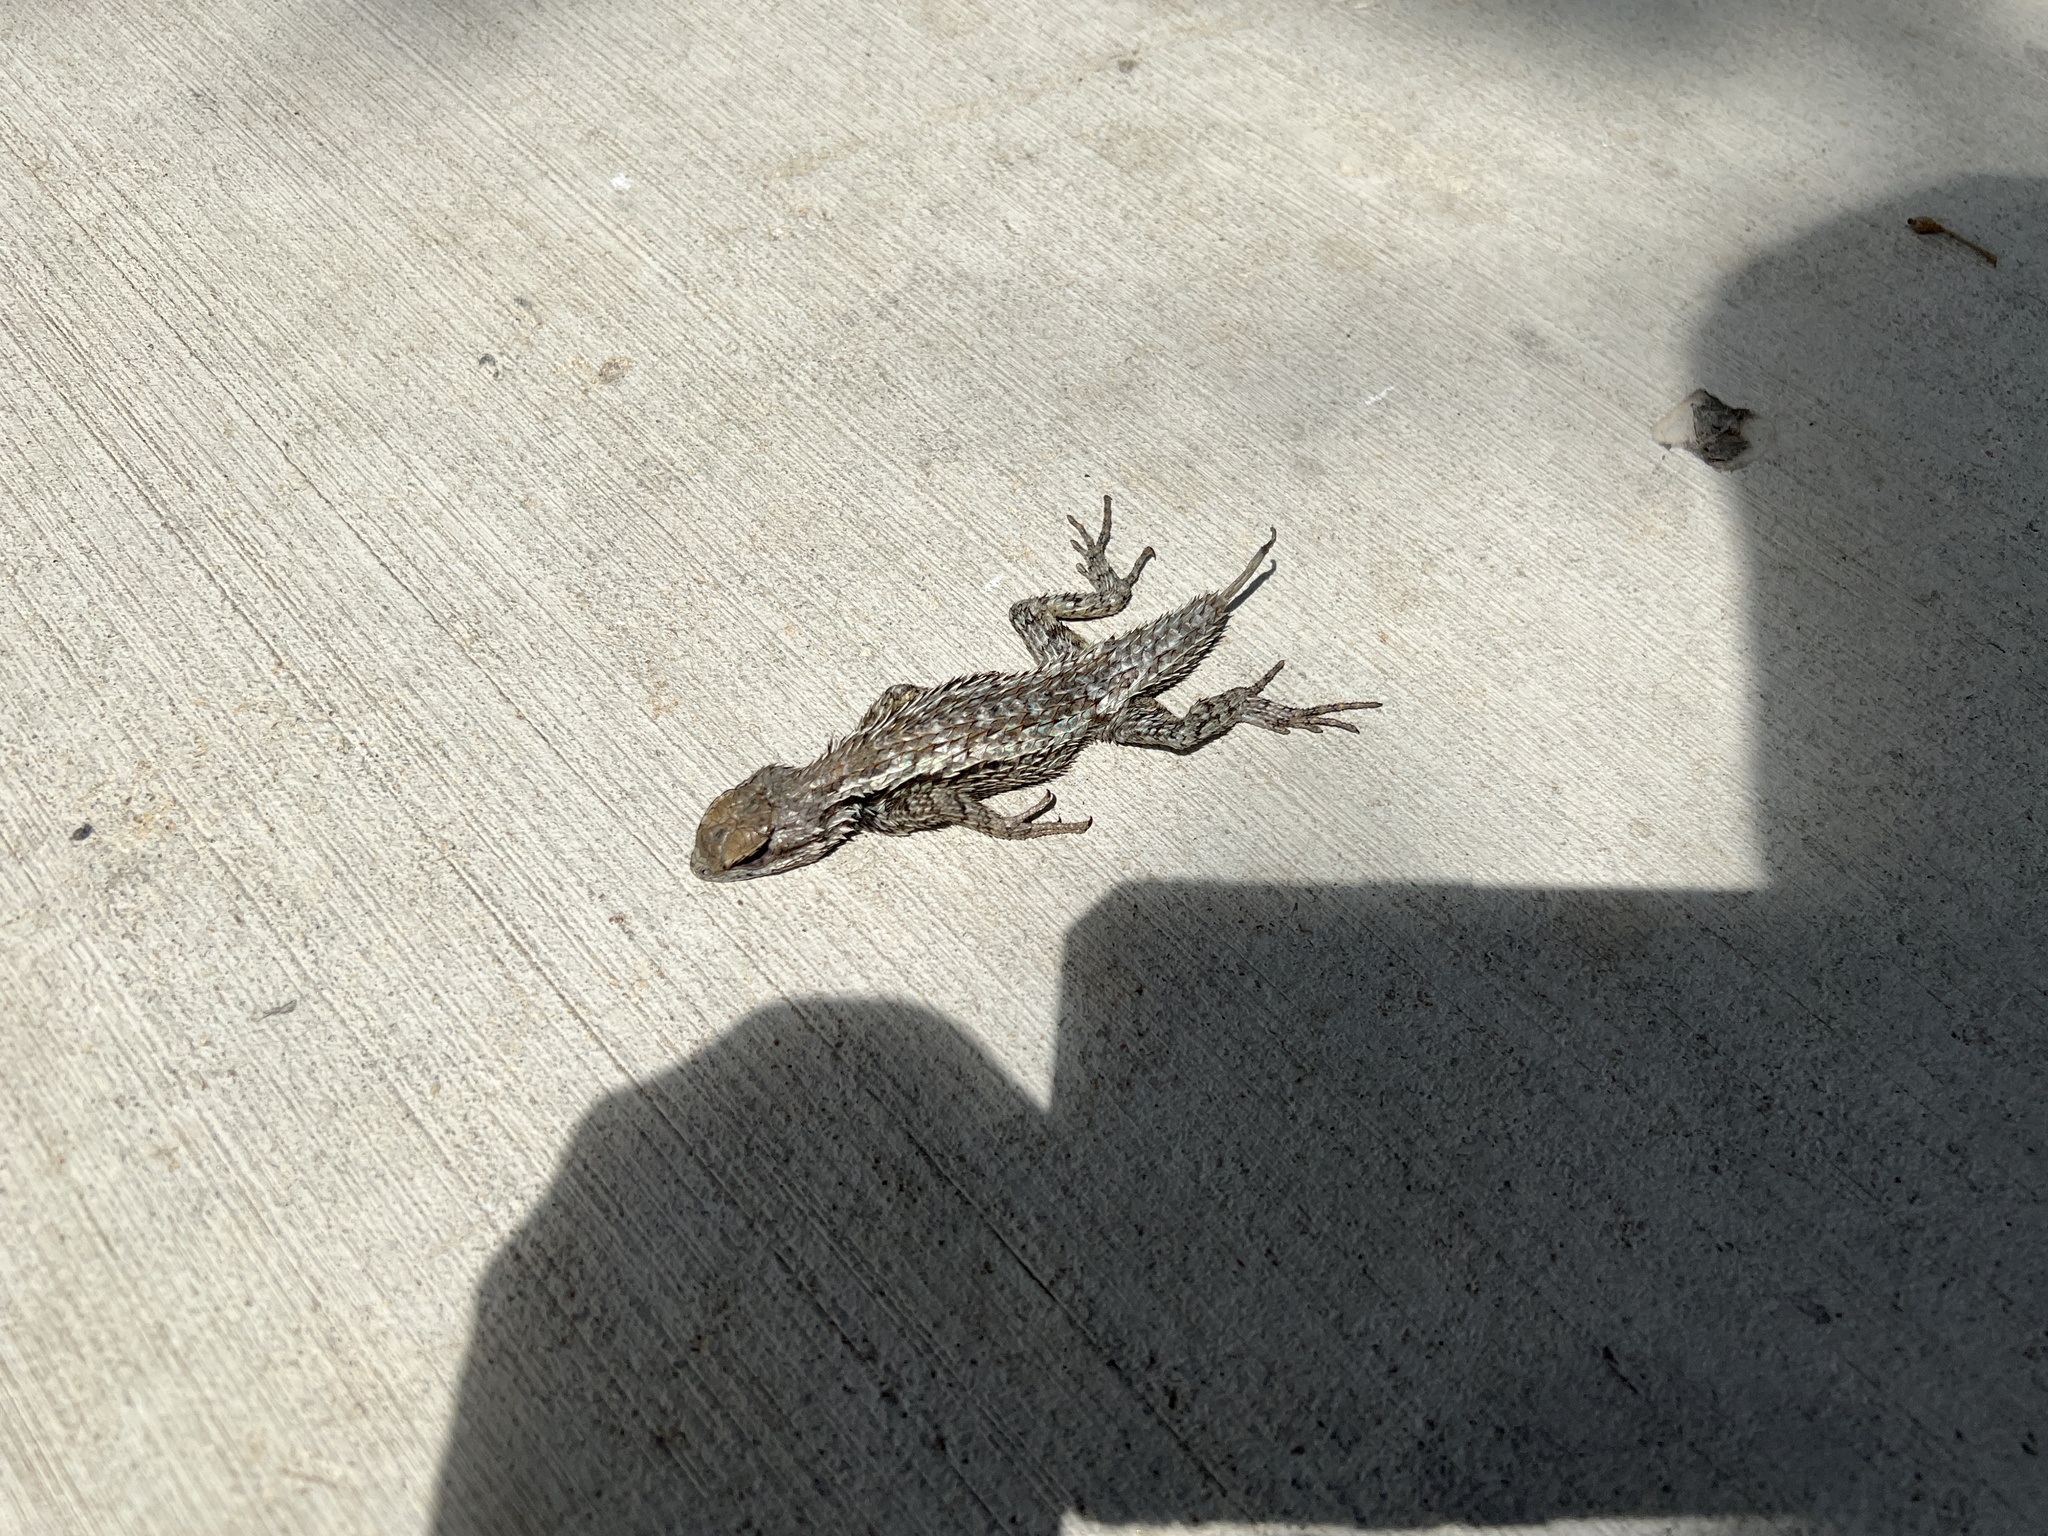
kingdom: Animalia
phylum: Chordata
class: Squamata
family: Phrynosomatidae
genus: Sceloporus
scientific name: Sceloporus olivaceus
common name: Texas spiny lizard
